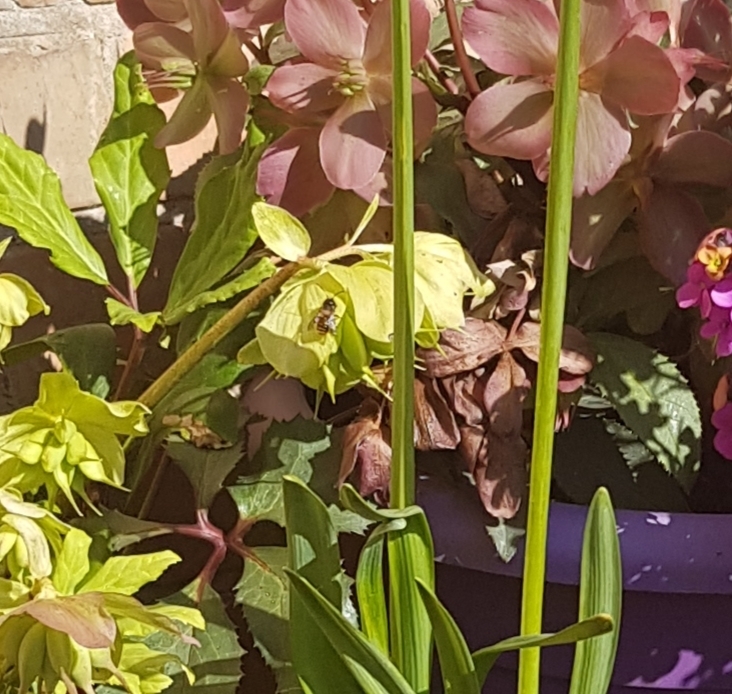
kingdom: Animalia
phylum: Arthropoda
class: Insecta
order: Hymenoptera
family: Megachilidae
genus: Osmia
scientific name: Osmia bicornis
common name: Red mason bee
